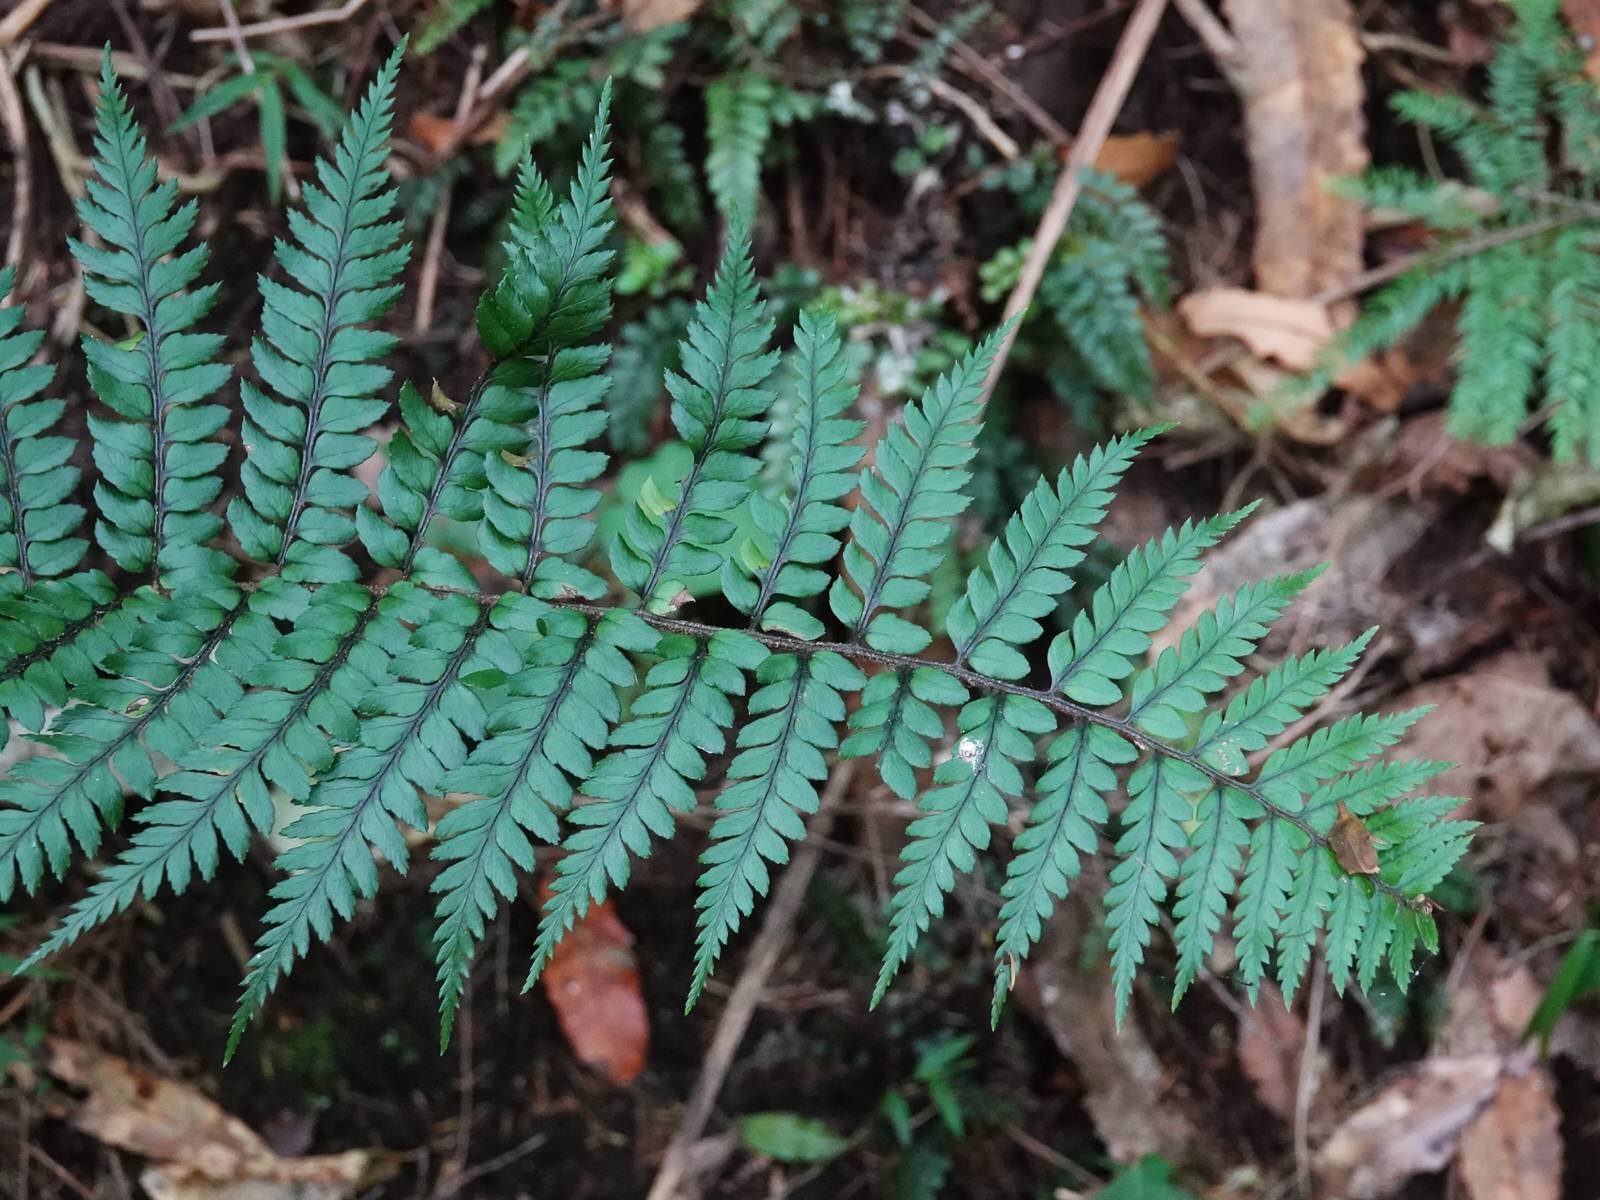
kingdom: Plantae
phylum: Tracheophyta
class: Polypodiopsida
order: Polypodiales
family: Dryopteridaceae
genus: Polystichum
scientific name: Polystichum wawranum
